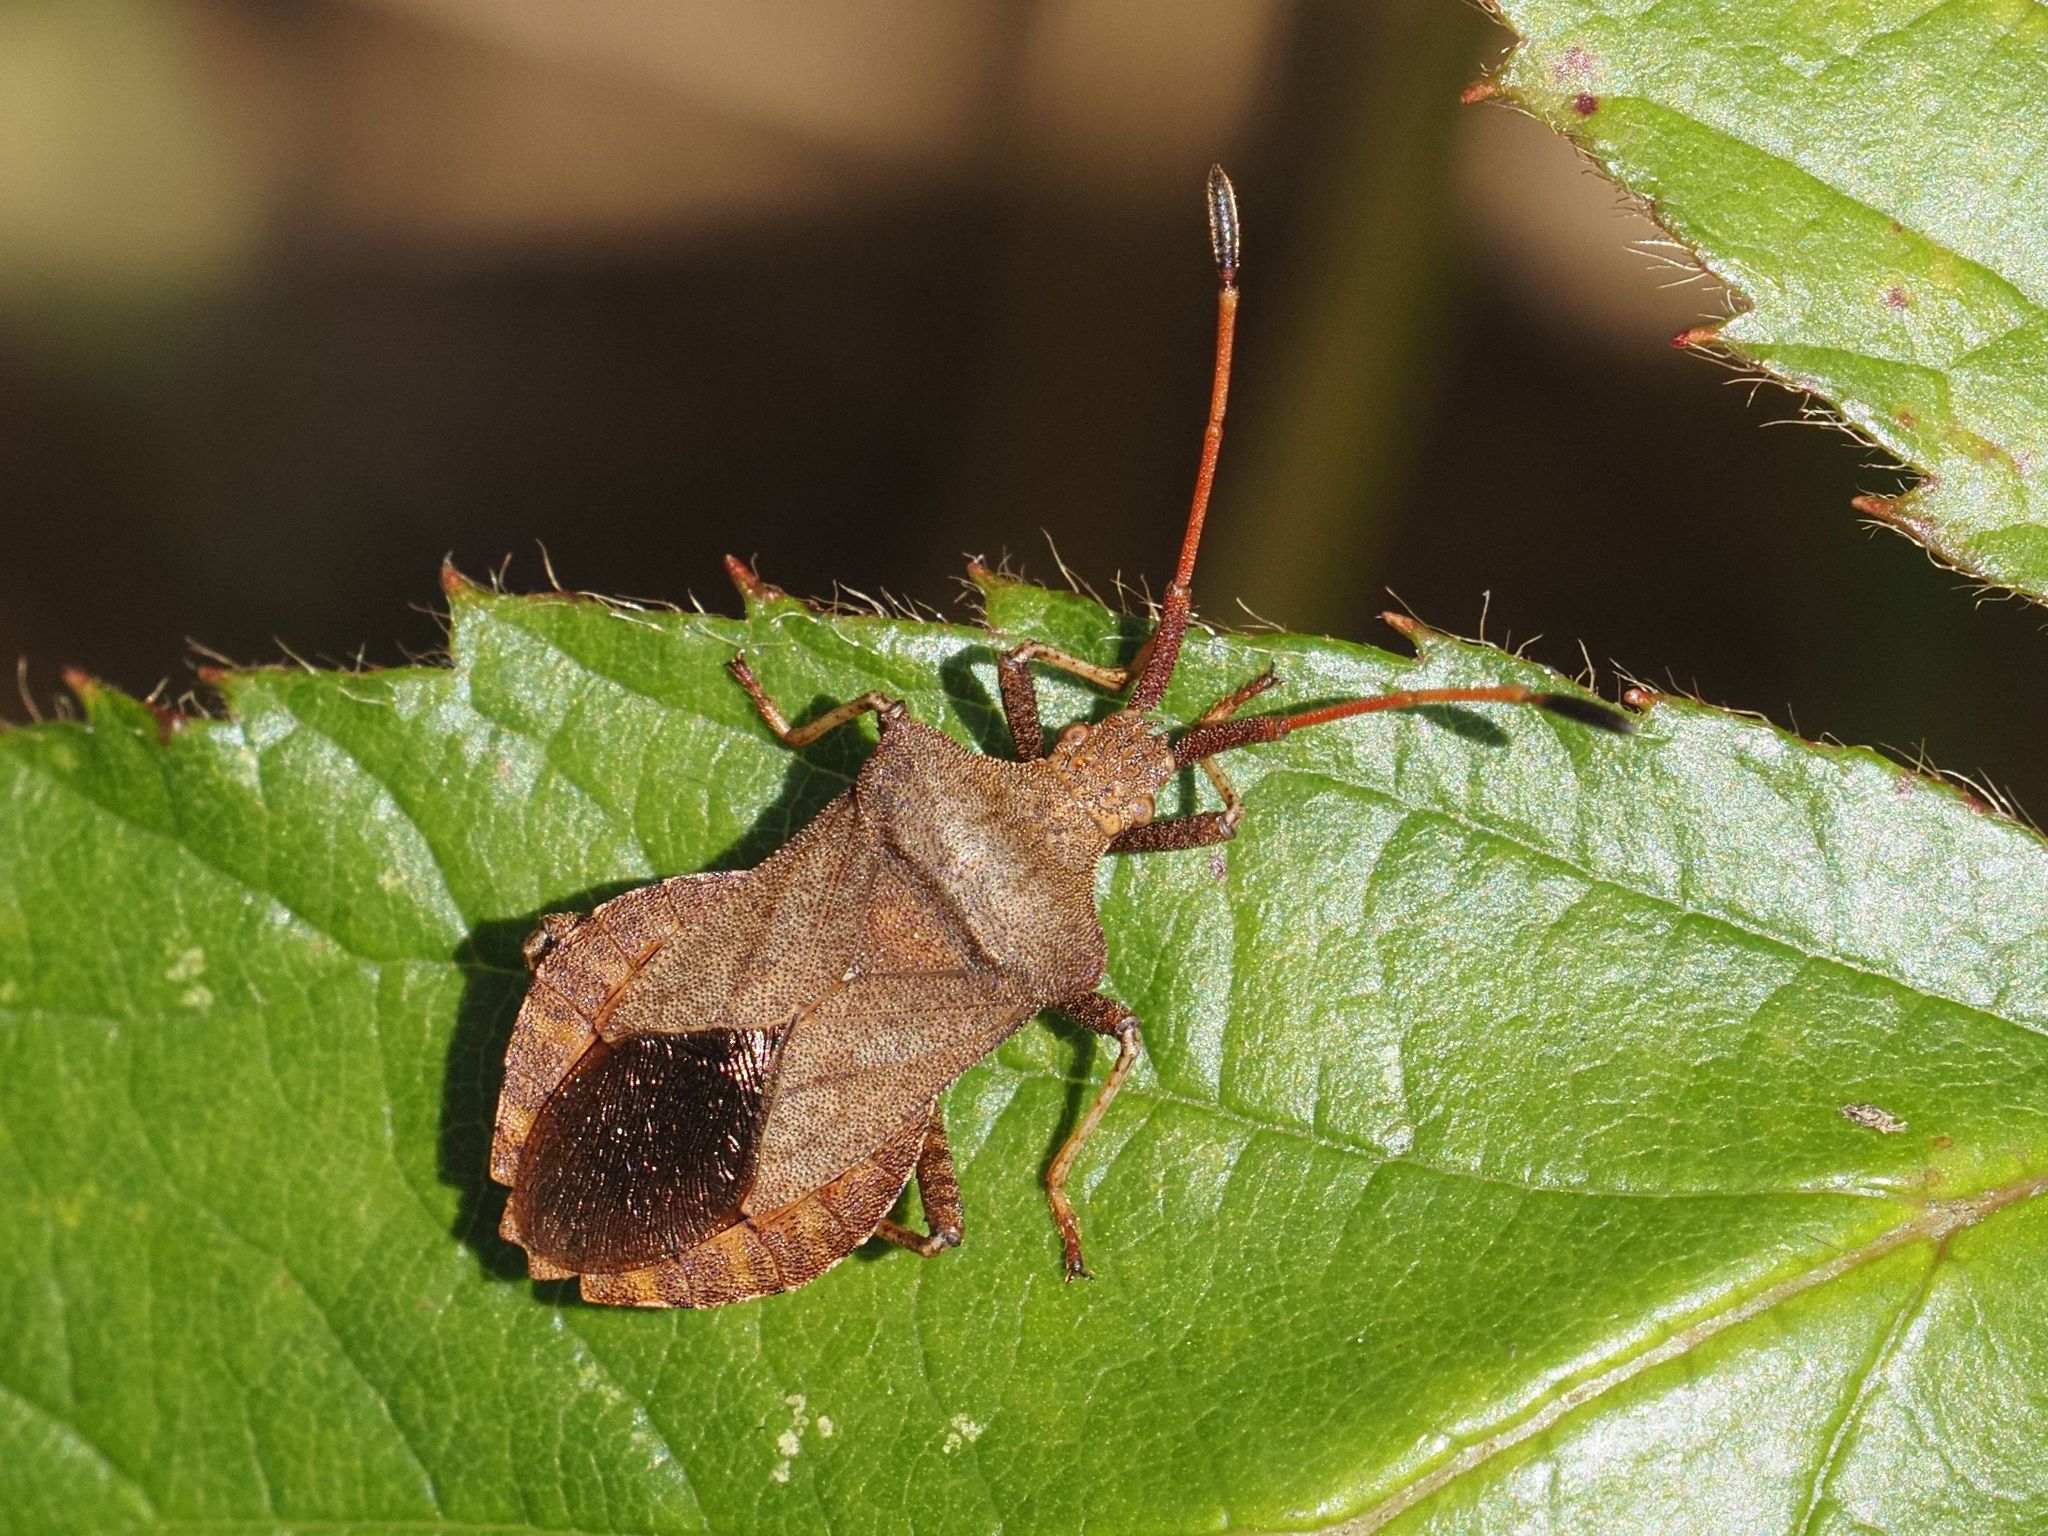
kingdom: Animalia
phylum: Arthropoda
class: Insecta
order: Hemiptera
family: Coreidae
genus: Coreus
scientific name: Coreus marginatus
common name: Dock bug
